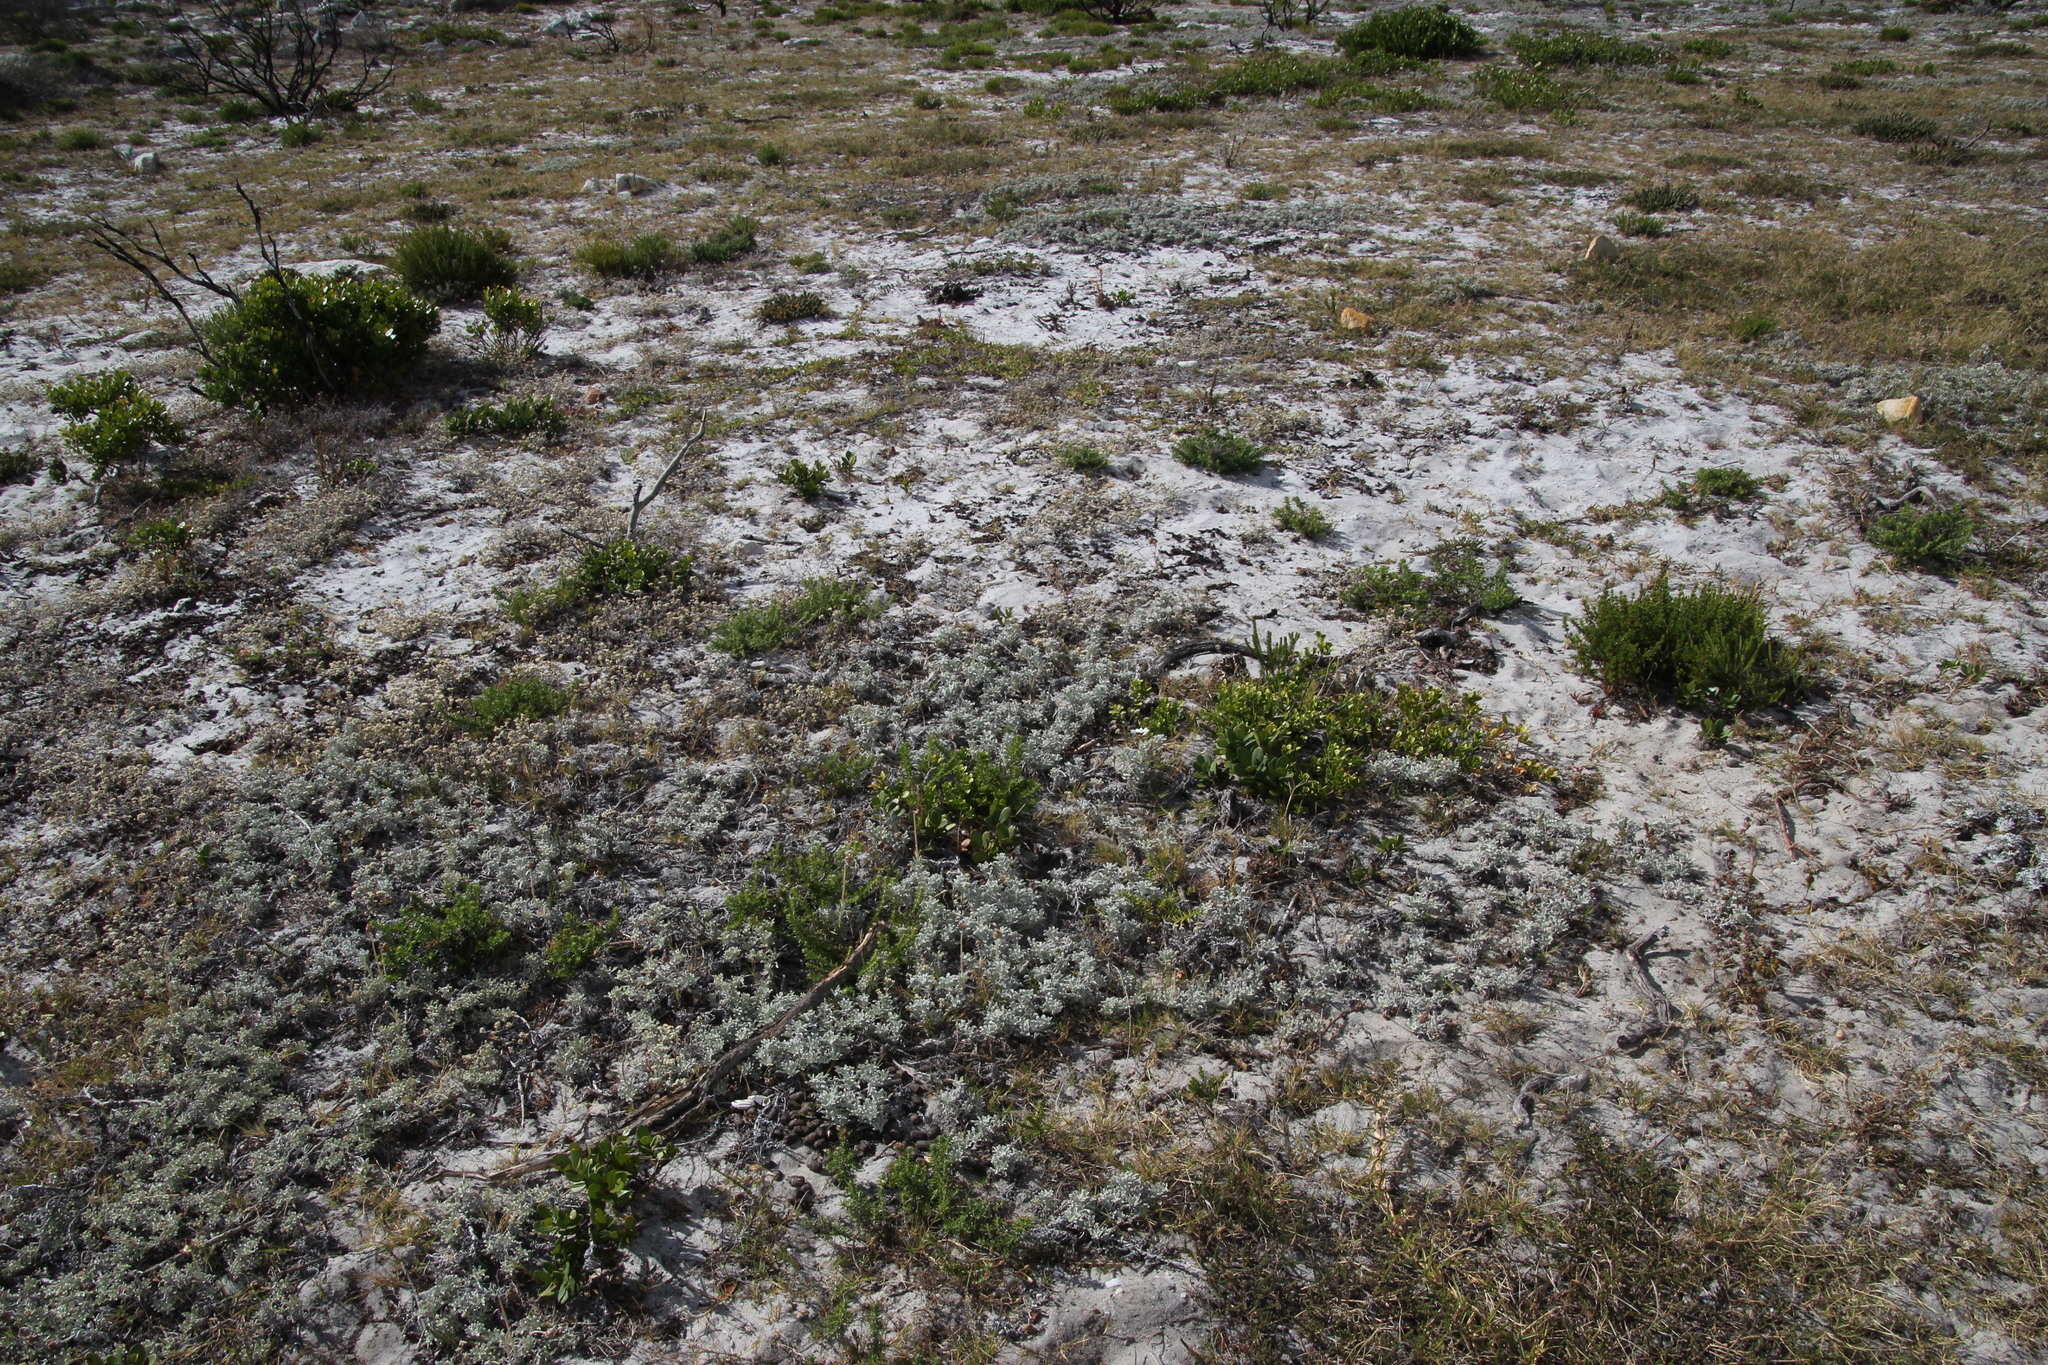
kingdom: Plantae
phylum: Tracheophyta
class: Magnoliopsida
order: Asterales
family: Asteraceae
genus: Arctotis
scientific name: Arctotis stoechadifolia
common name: African daisy
